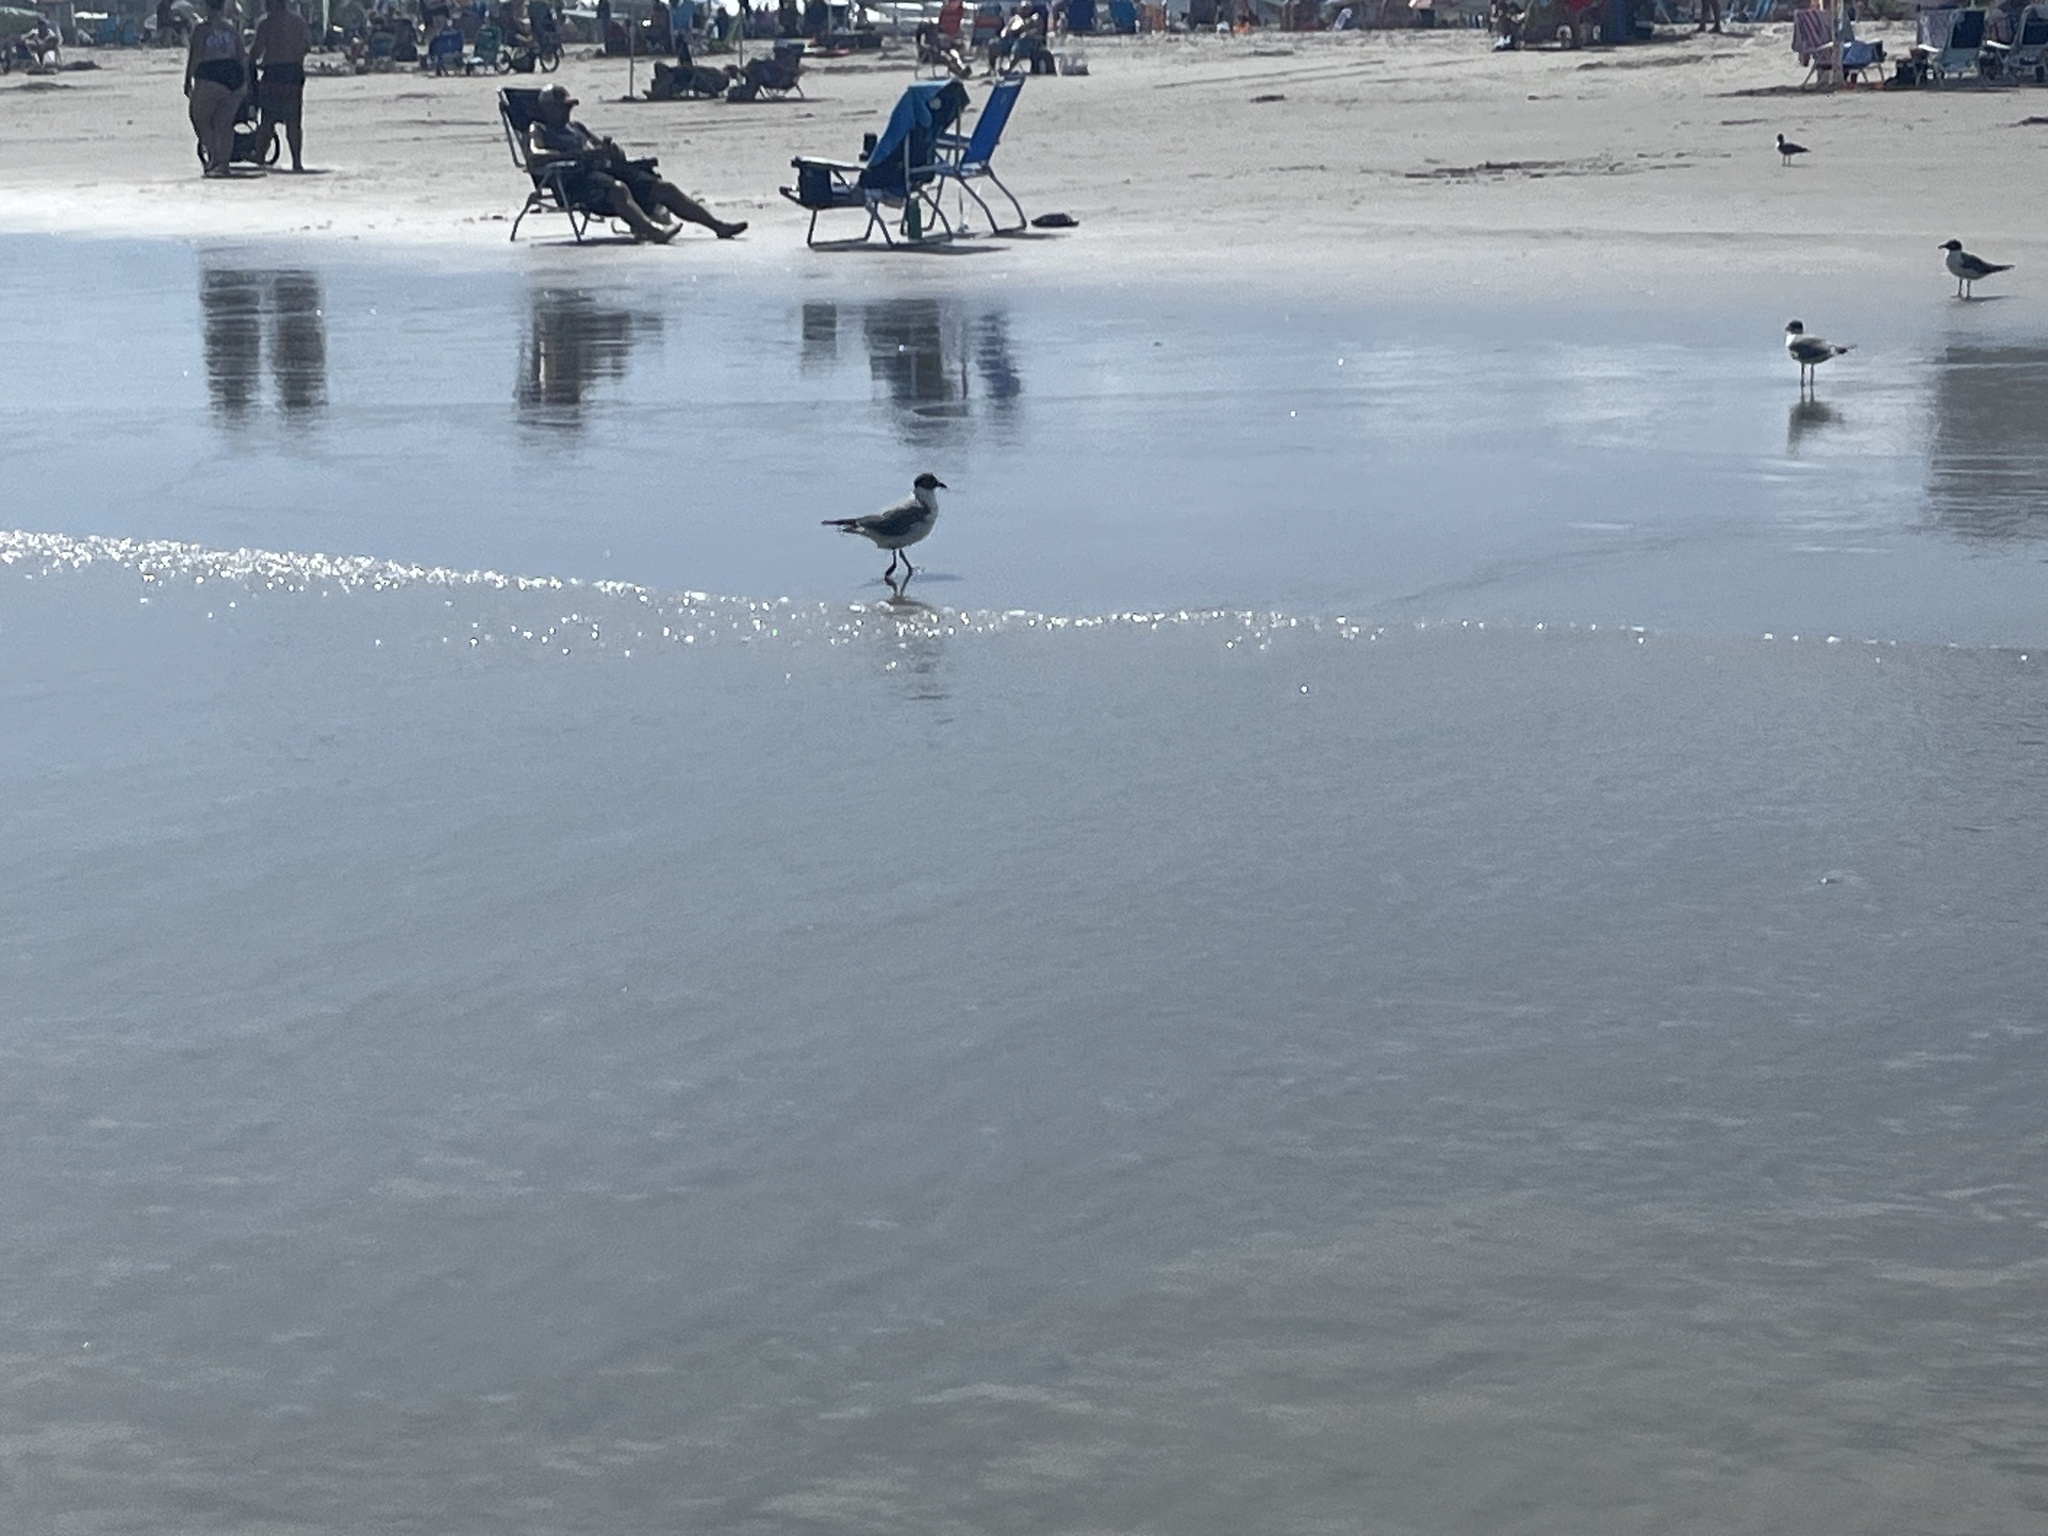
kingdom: Animalia
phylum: Chordata
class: Aves
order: Charadriiformes
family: Laridae
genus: Leucophaeus
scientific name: Leucophaeus atricilla
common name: Laughing gull
